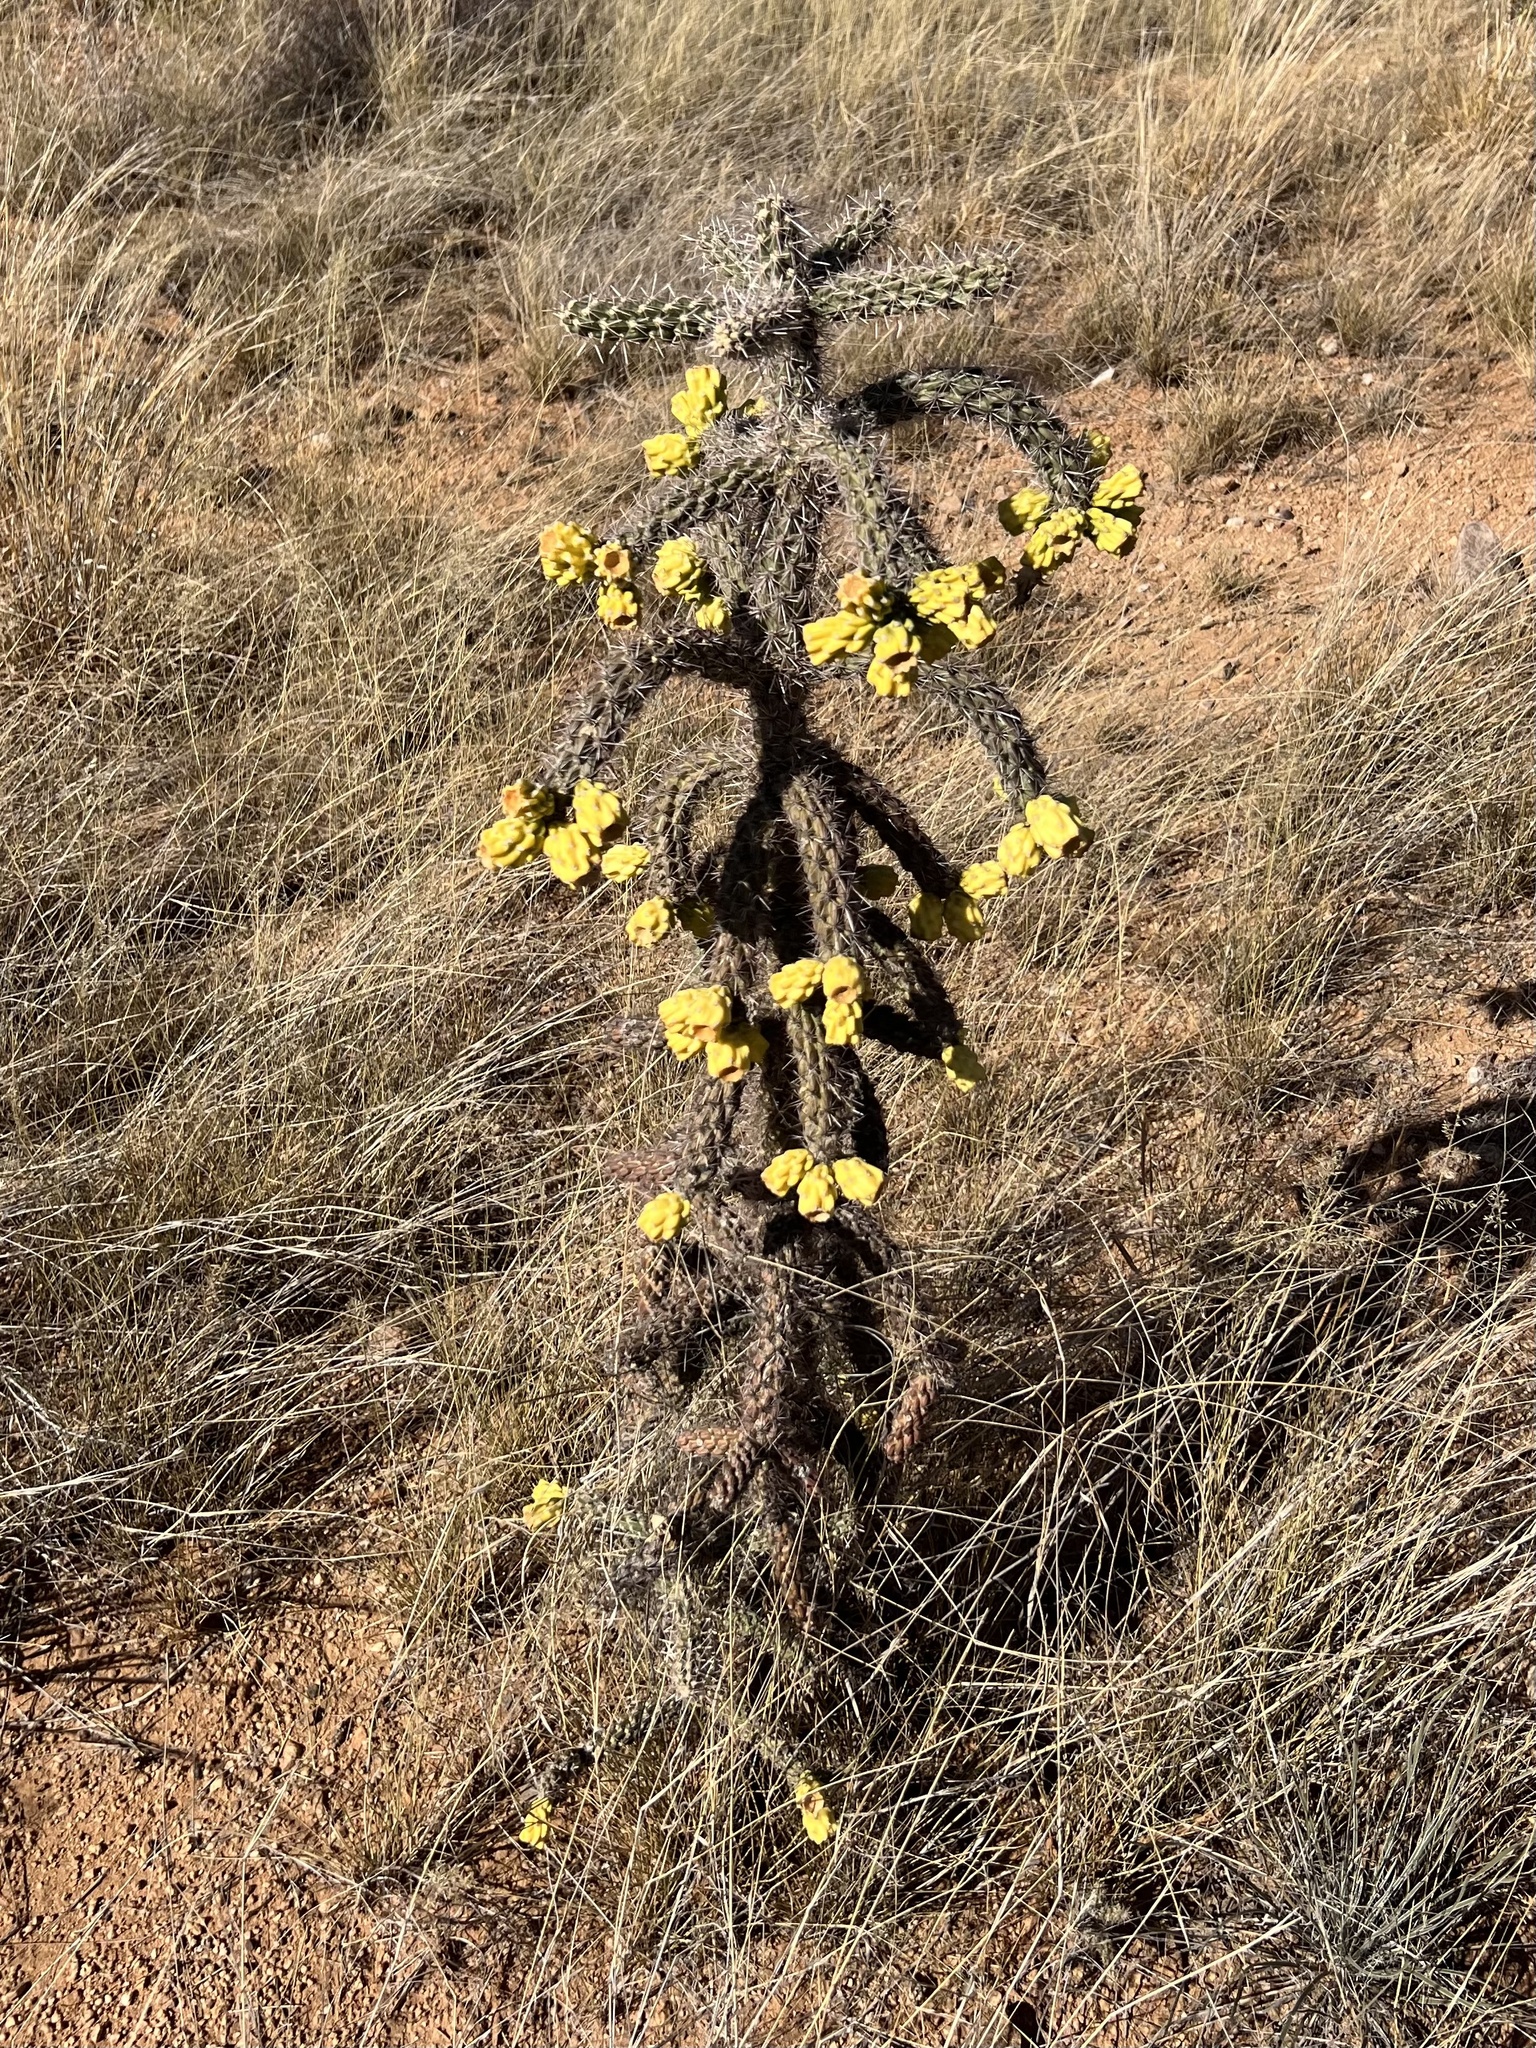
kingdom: Plantae
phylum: Tracheophyta
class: Magnoliopsida
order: Caryophyllales
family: Cactaceae
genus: Cylindropuntia
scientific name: Cylindropuntia imbricata
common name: Candelabrum cactus
